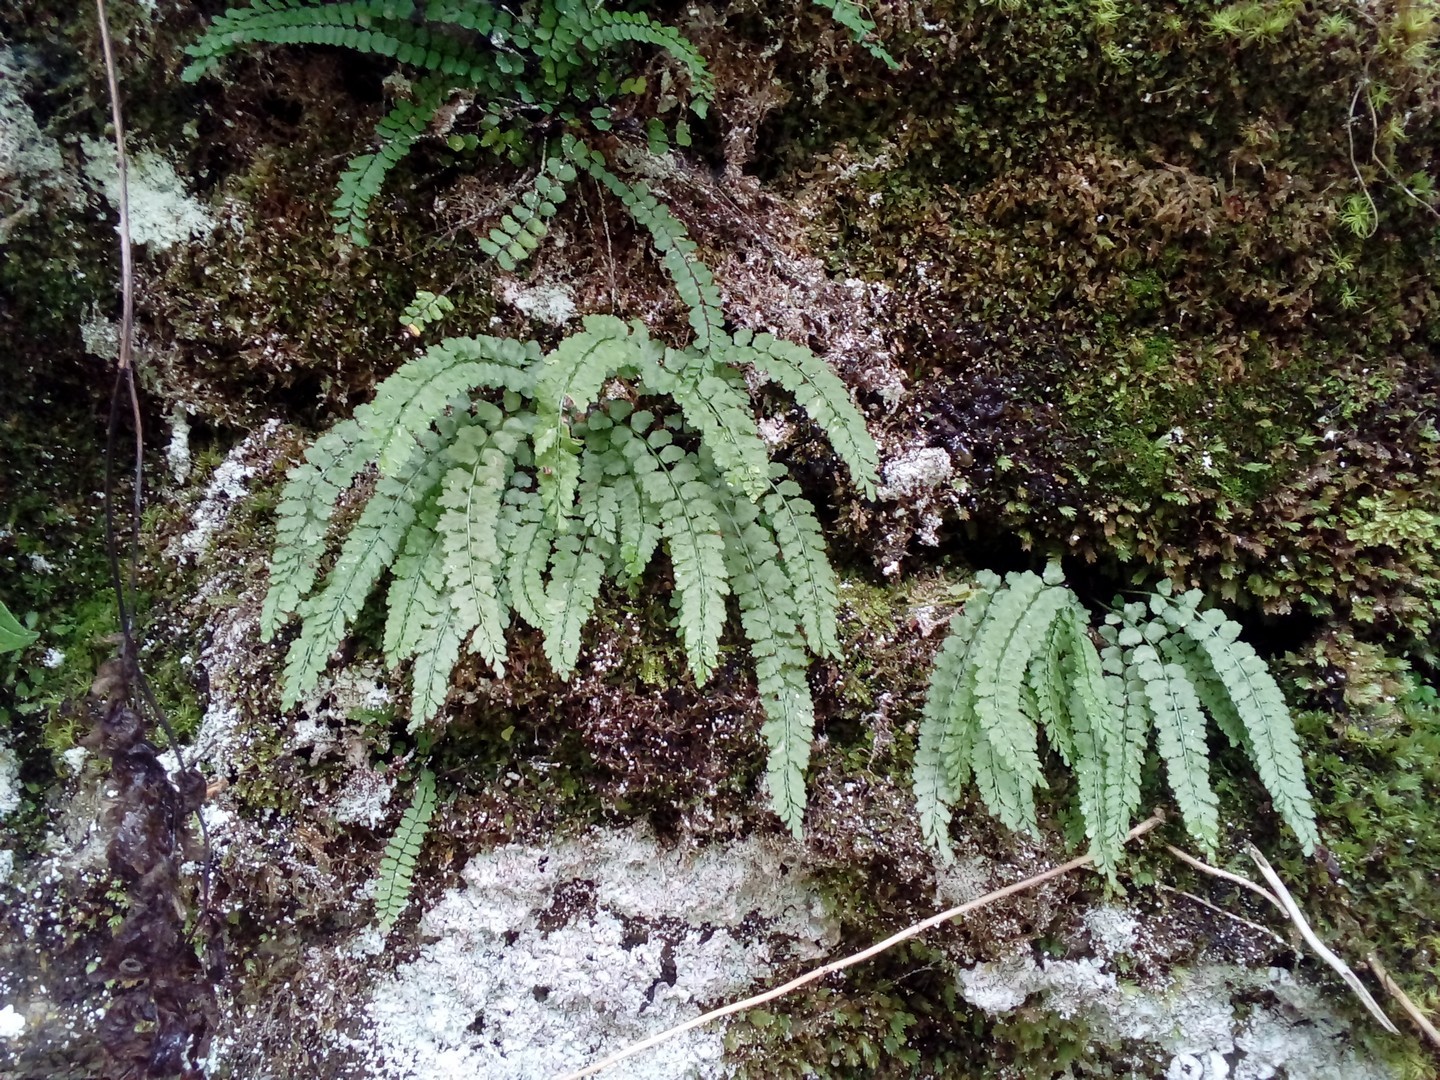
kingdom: Plantae
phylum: Tracheophyta
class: Polypodiopsida
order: Polypodiales
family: Aspleniaceae
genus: Asplenium
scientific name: Asplenium viride
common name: Green spleenwort
